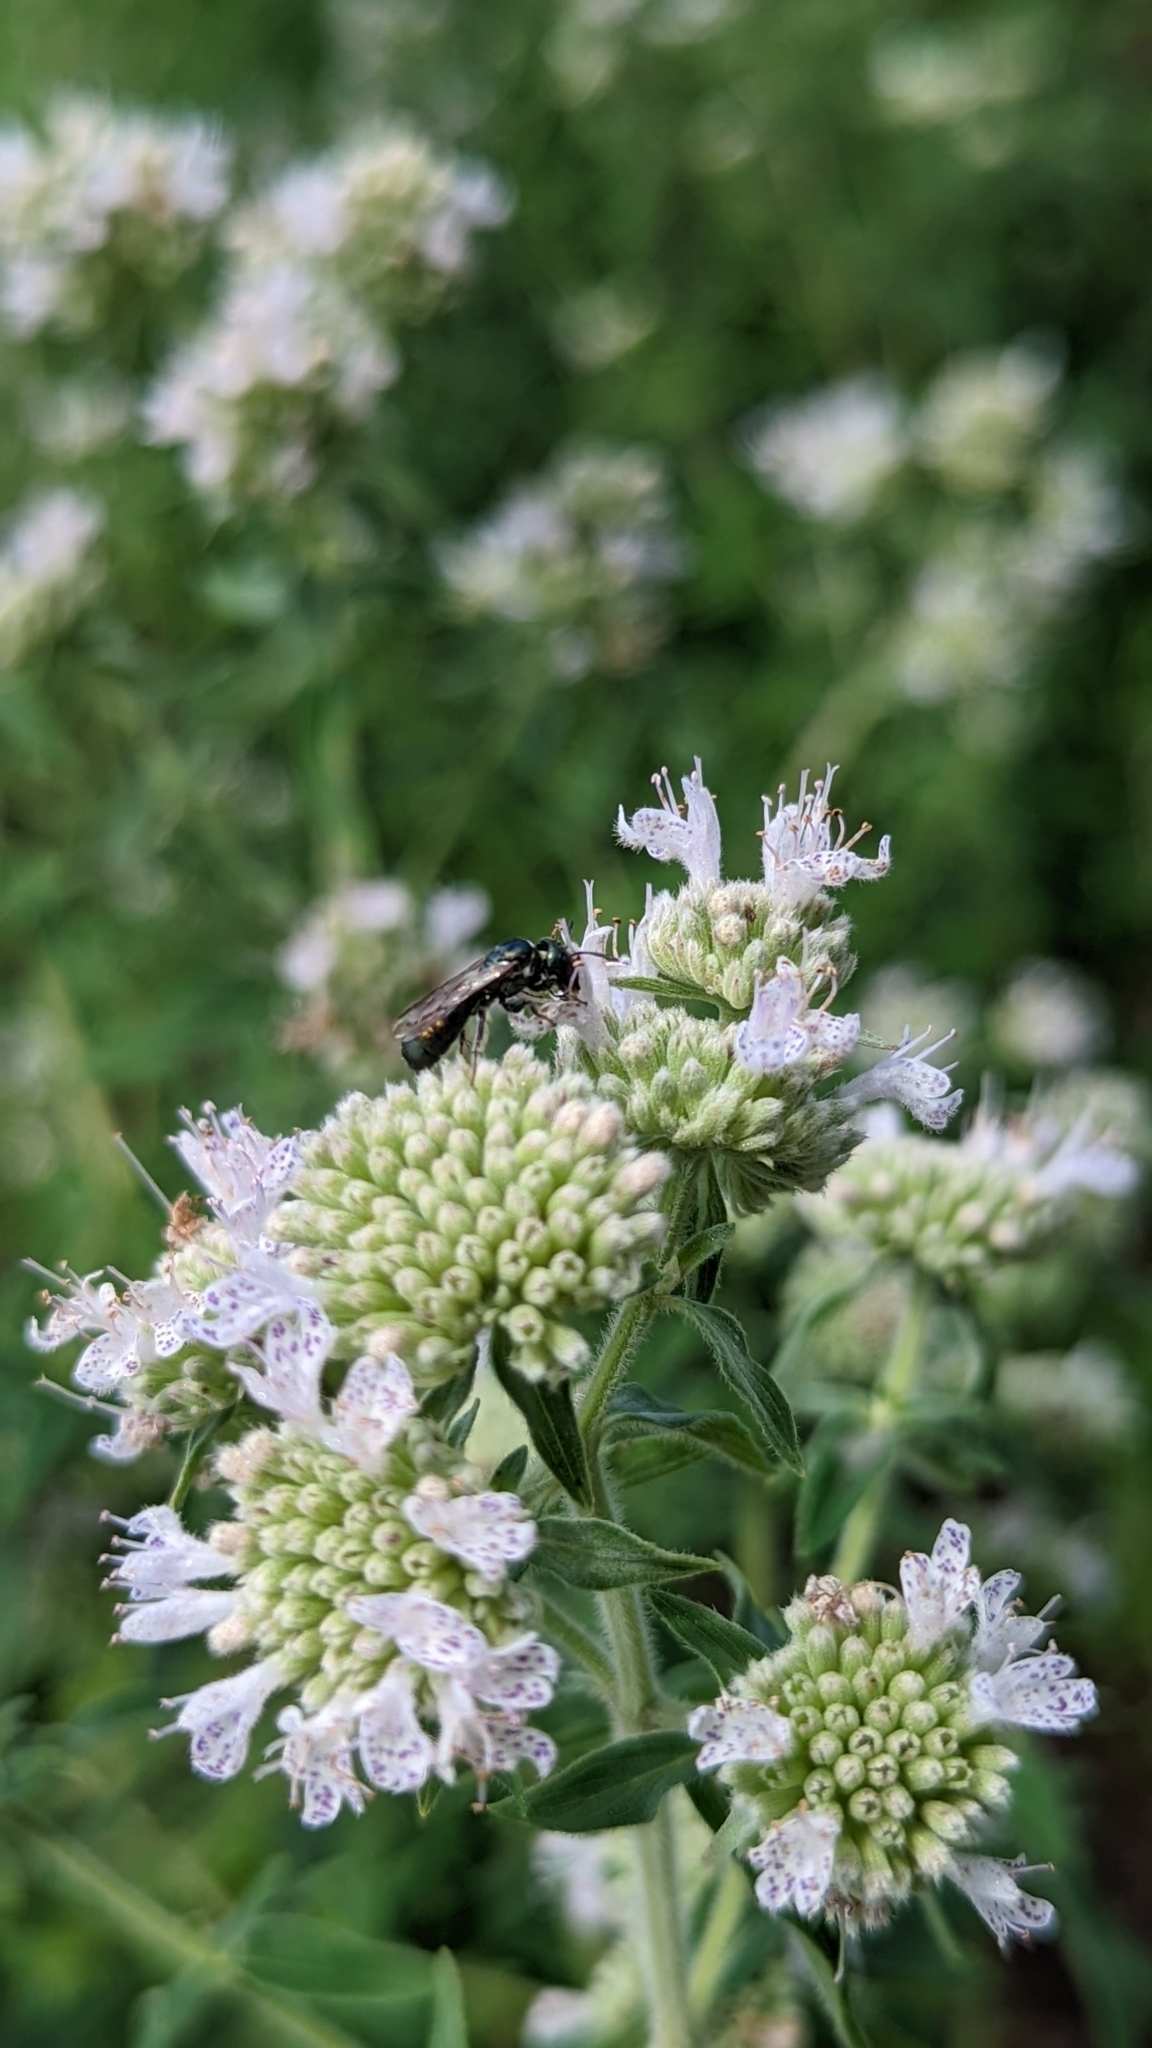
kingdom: Animalia
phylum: Arthropoda
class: Insecta
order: Hymenoptera
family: Apidae
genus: Zadontomerus
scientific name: Zadontomerus
